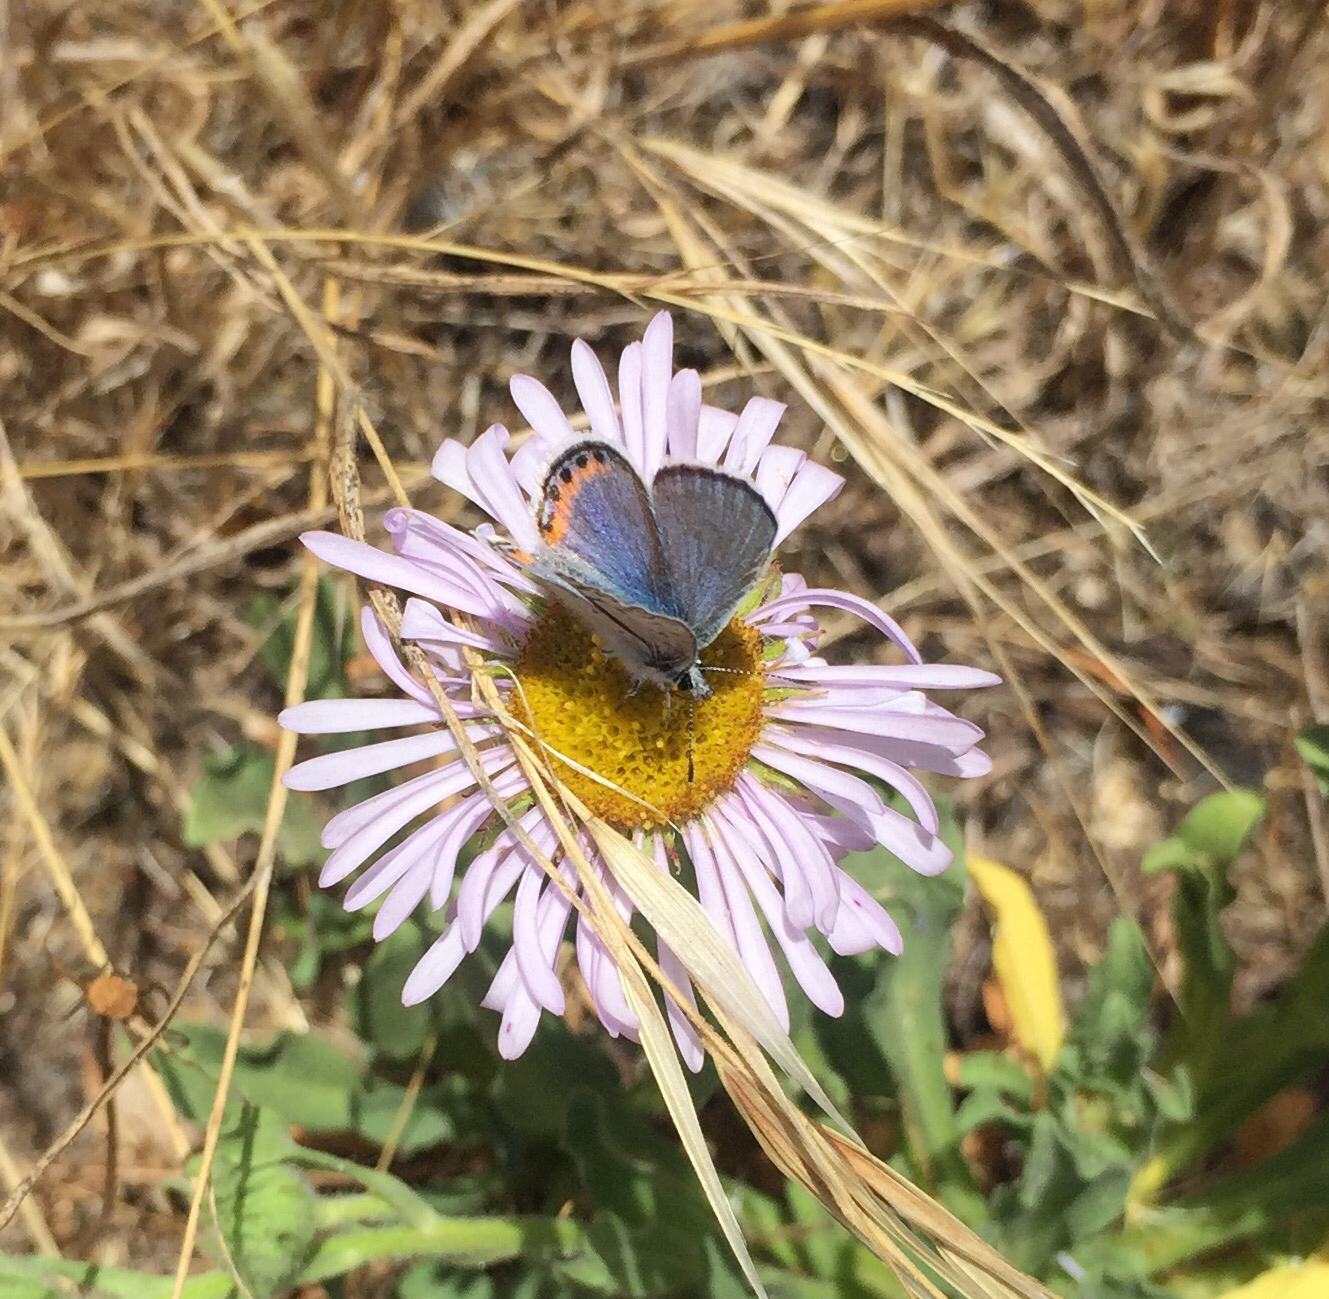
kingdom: Animalia
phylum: Arthropoda
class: Insecta
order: Lepidoptera
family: Lycaenidae
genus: Icaricia
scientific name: Icaricia acmon
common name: Acmon blue
